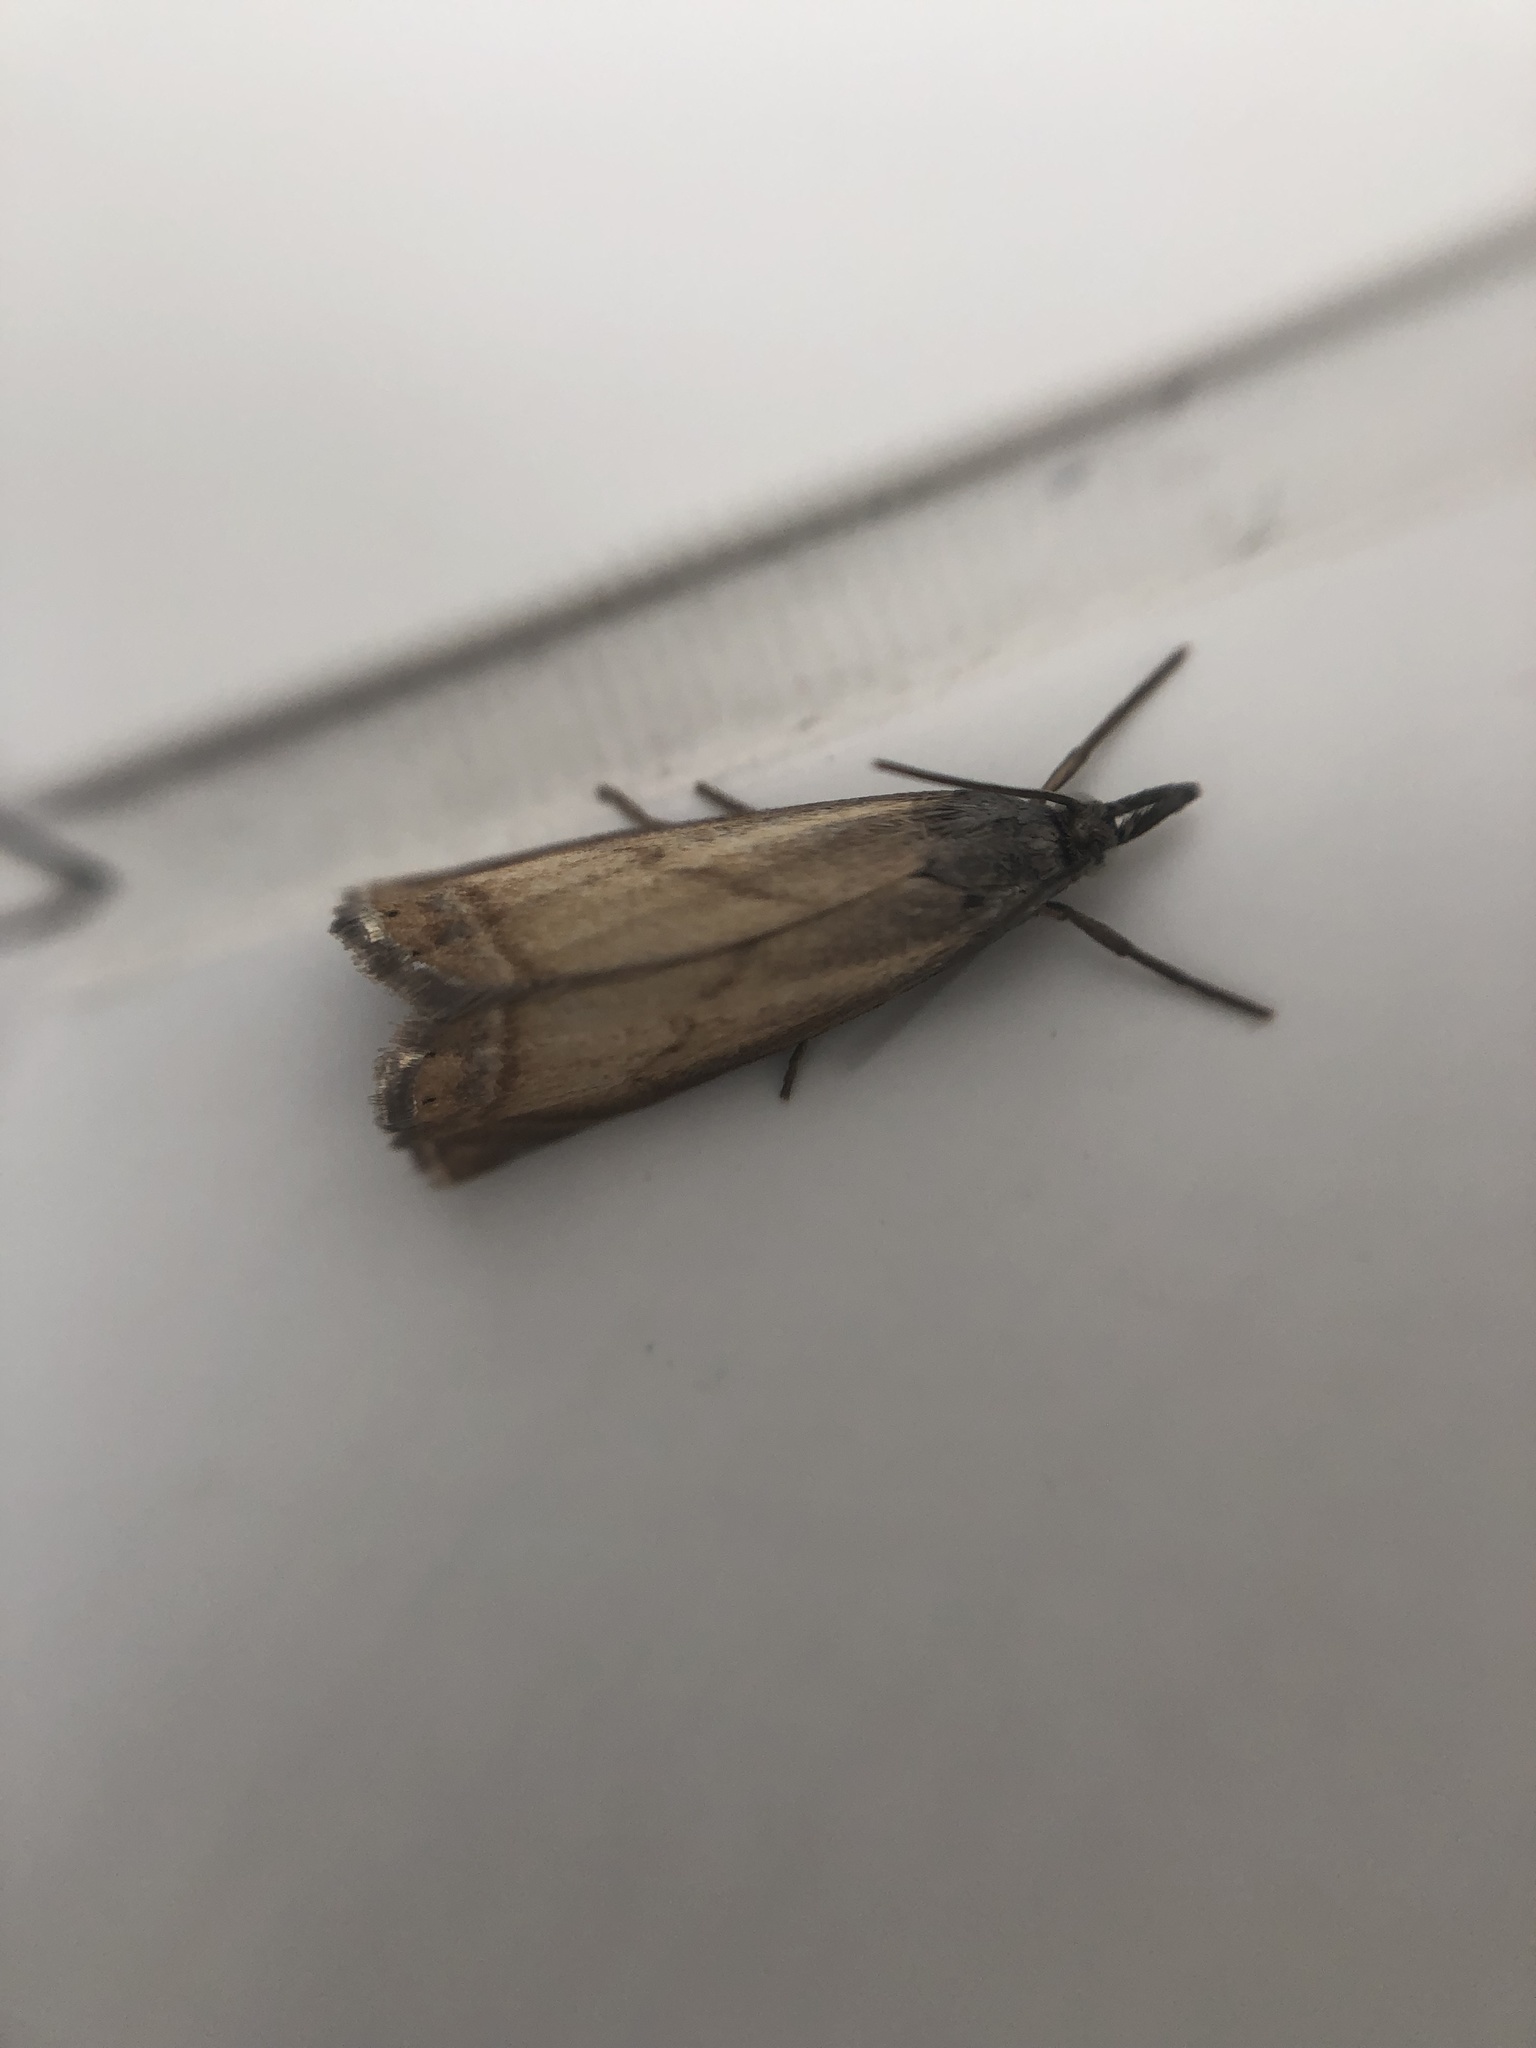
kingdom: Animalia
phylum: Arthropoda
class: Insecta
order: Lepidoptera
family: Crambidae
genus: Chrysoteuchia
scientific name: Chrysoteuchia culmella
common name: Garden grass-veneer
